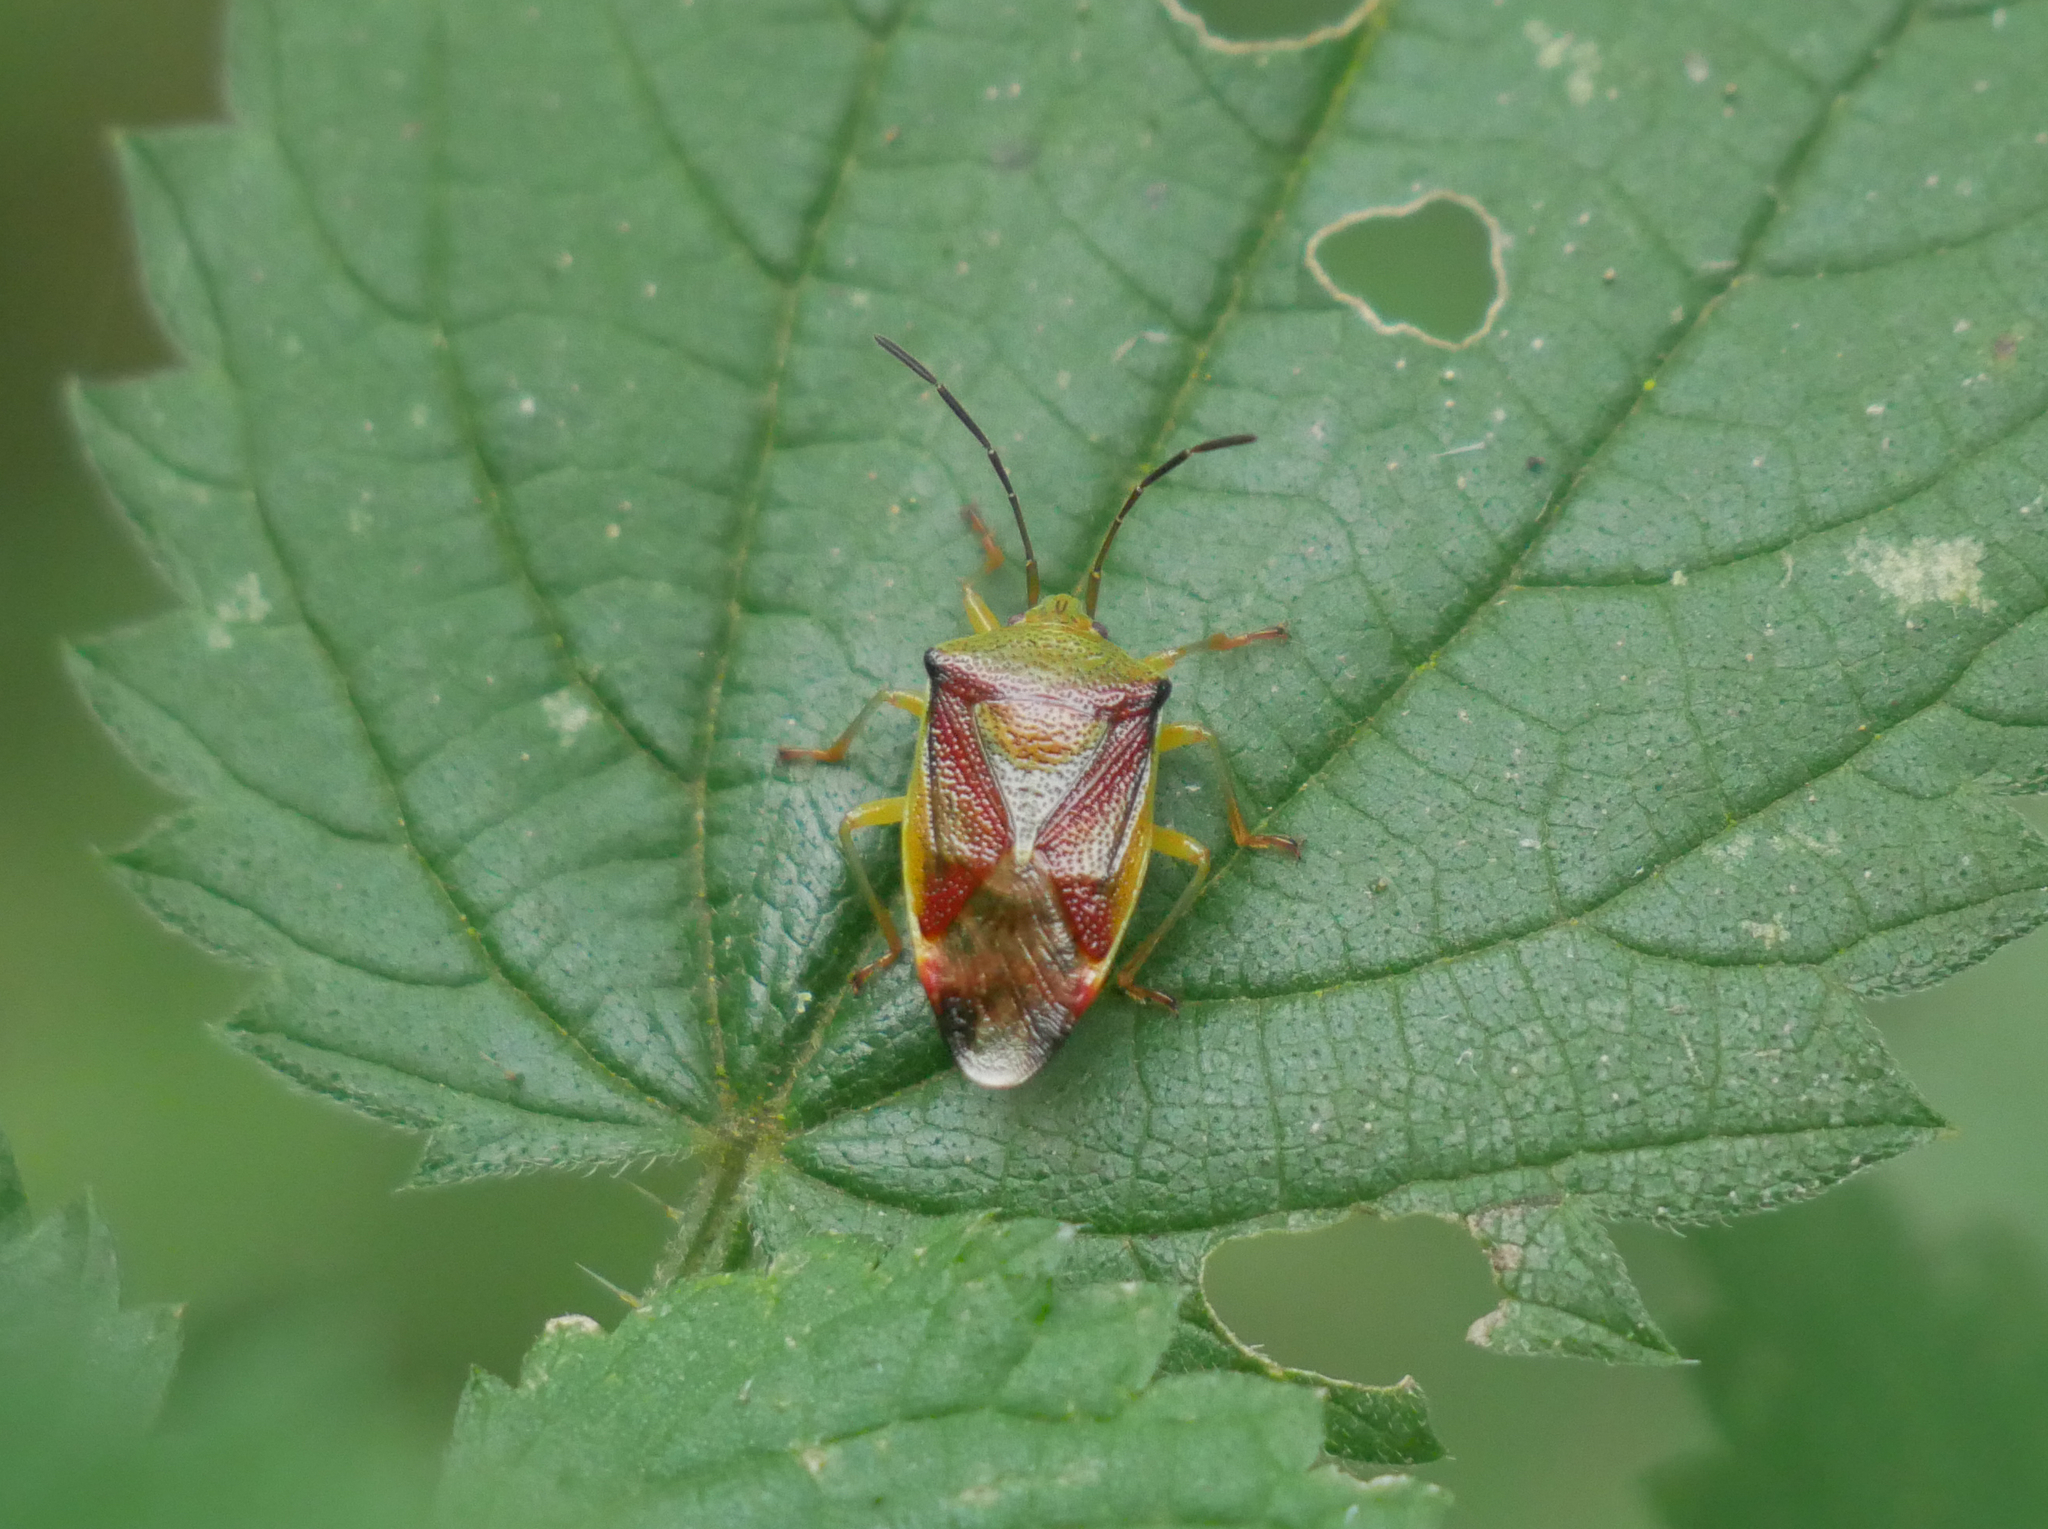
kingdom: Animalia
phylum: Arthropoda
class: Insecta
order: Hemiptera
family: Acanthosomatidae
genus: Elasmostethus
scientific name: Elasmostethus
